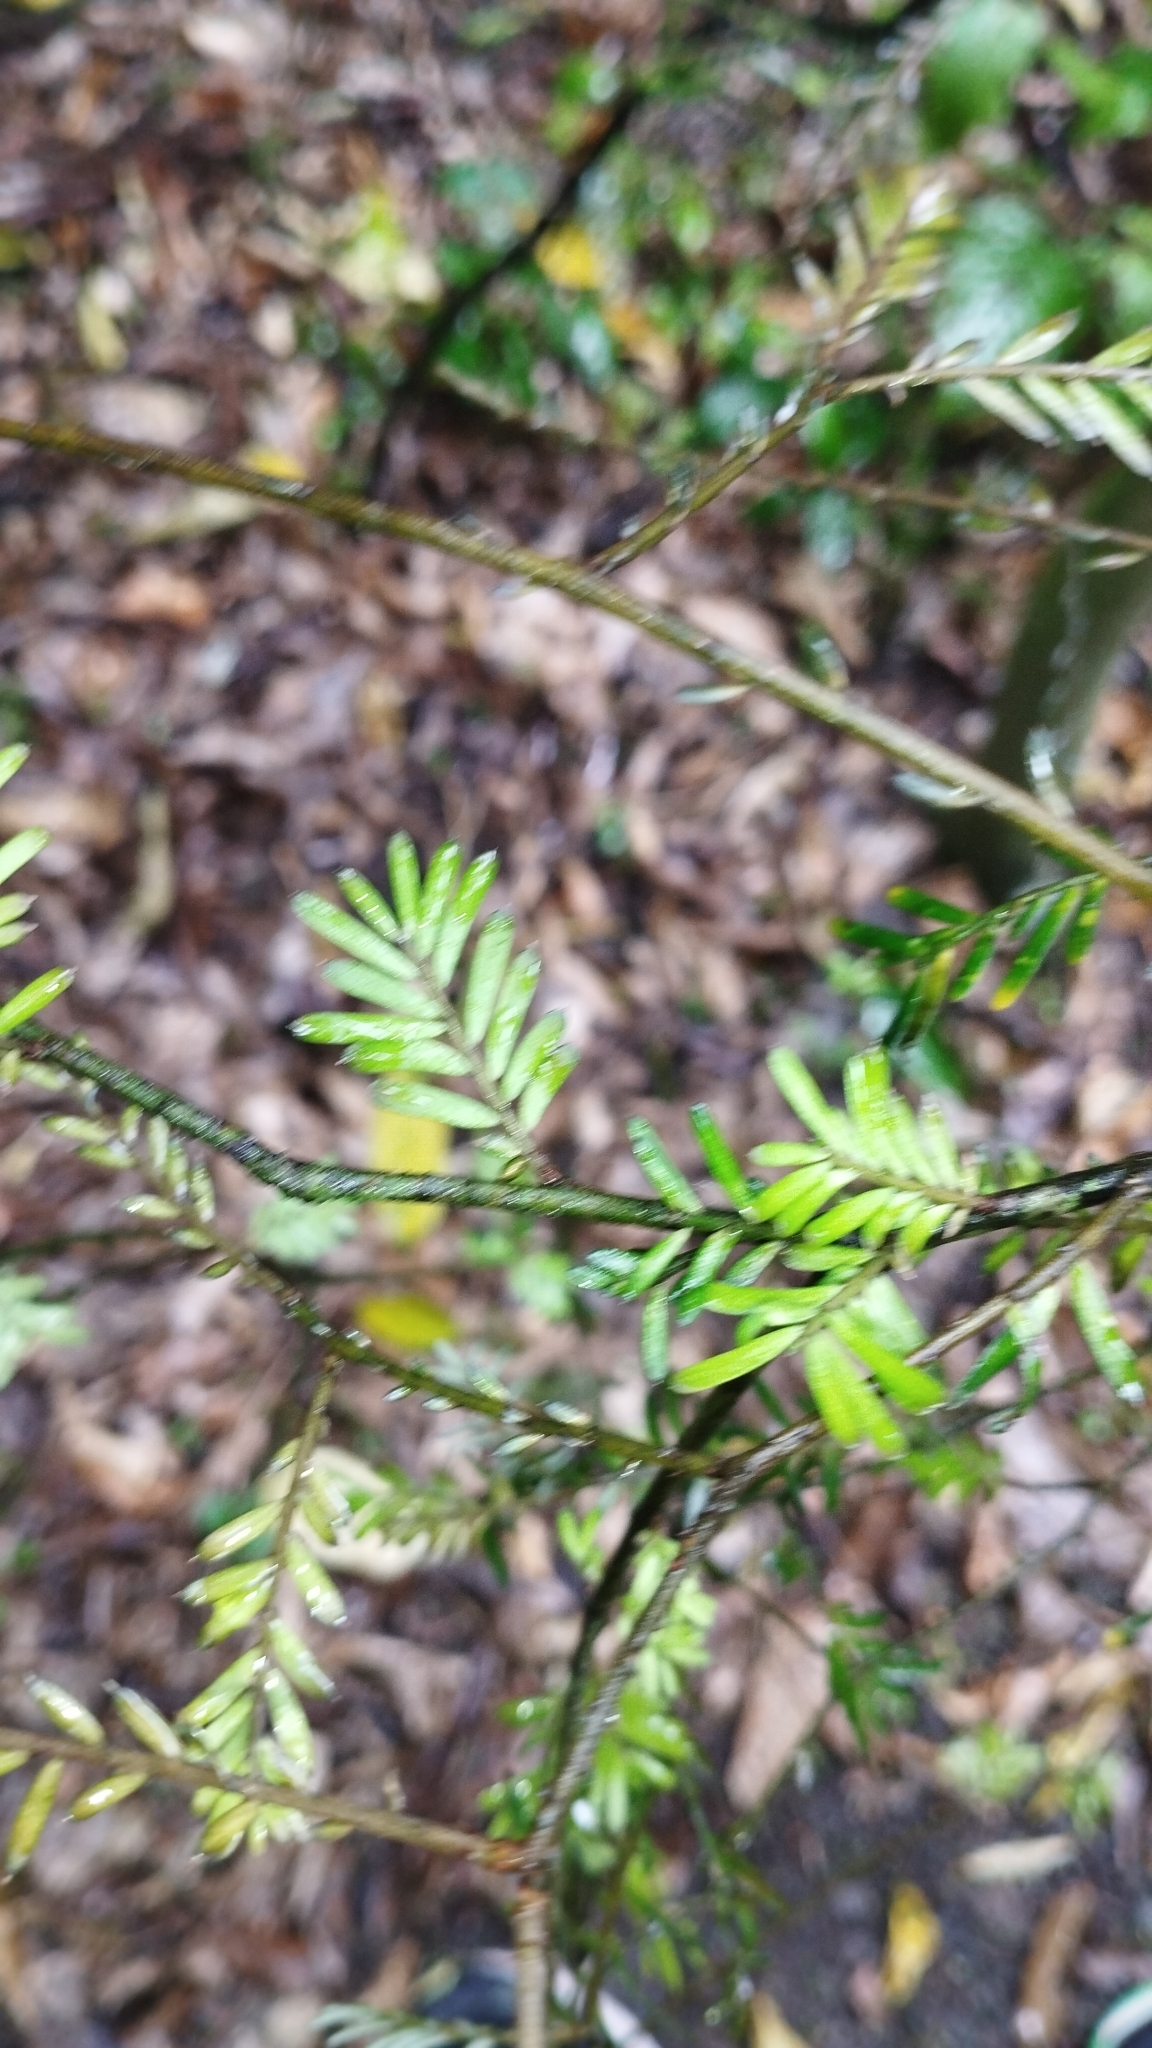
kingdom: Plantae
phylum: Tracheophyta
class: Pinopsida
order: Pinales
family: Podocarpaceae
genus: Prumnopitys
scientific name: Prumnopitys taxifolia
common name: Matai
